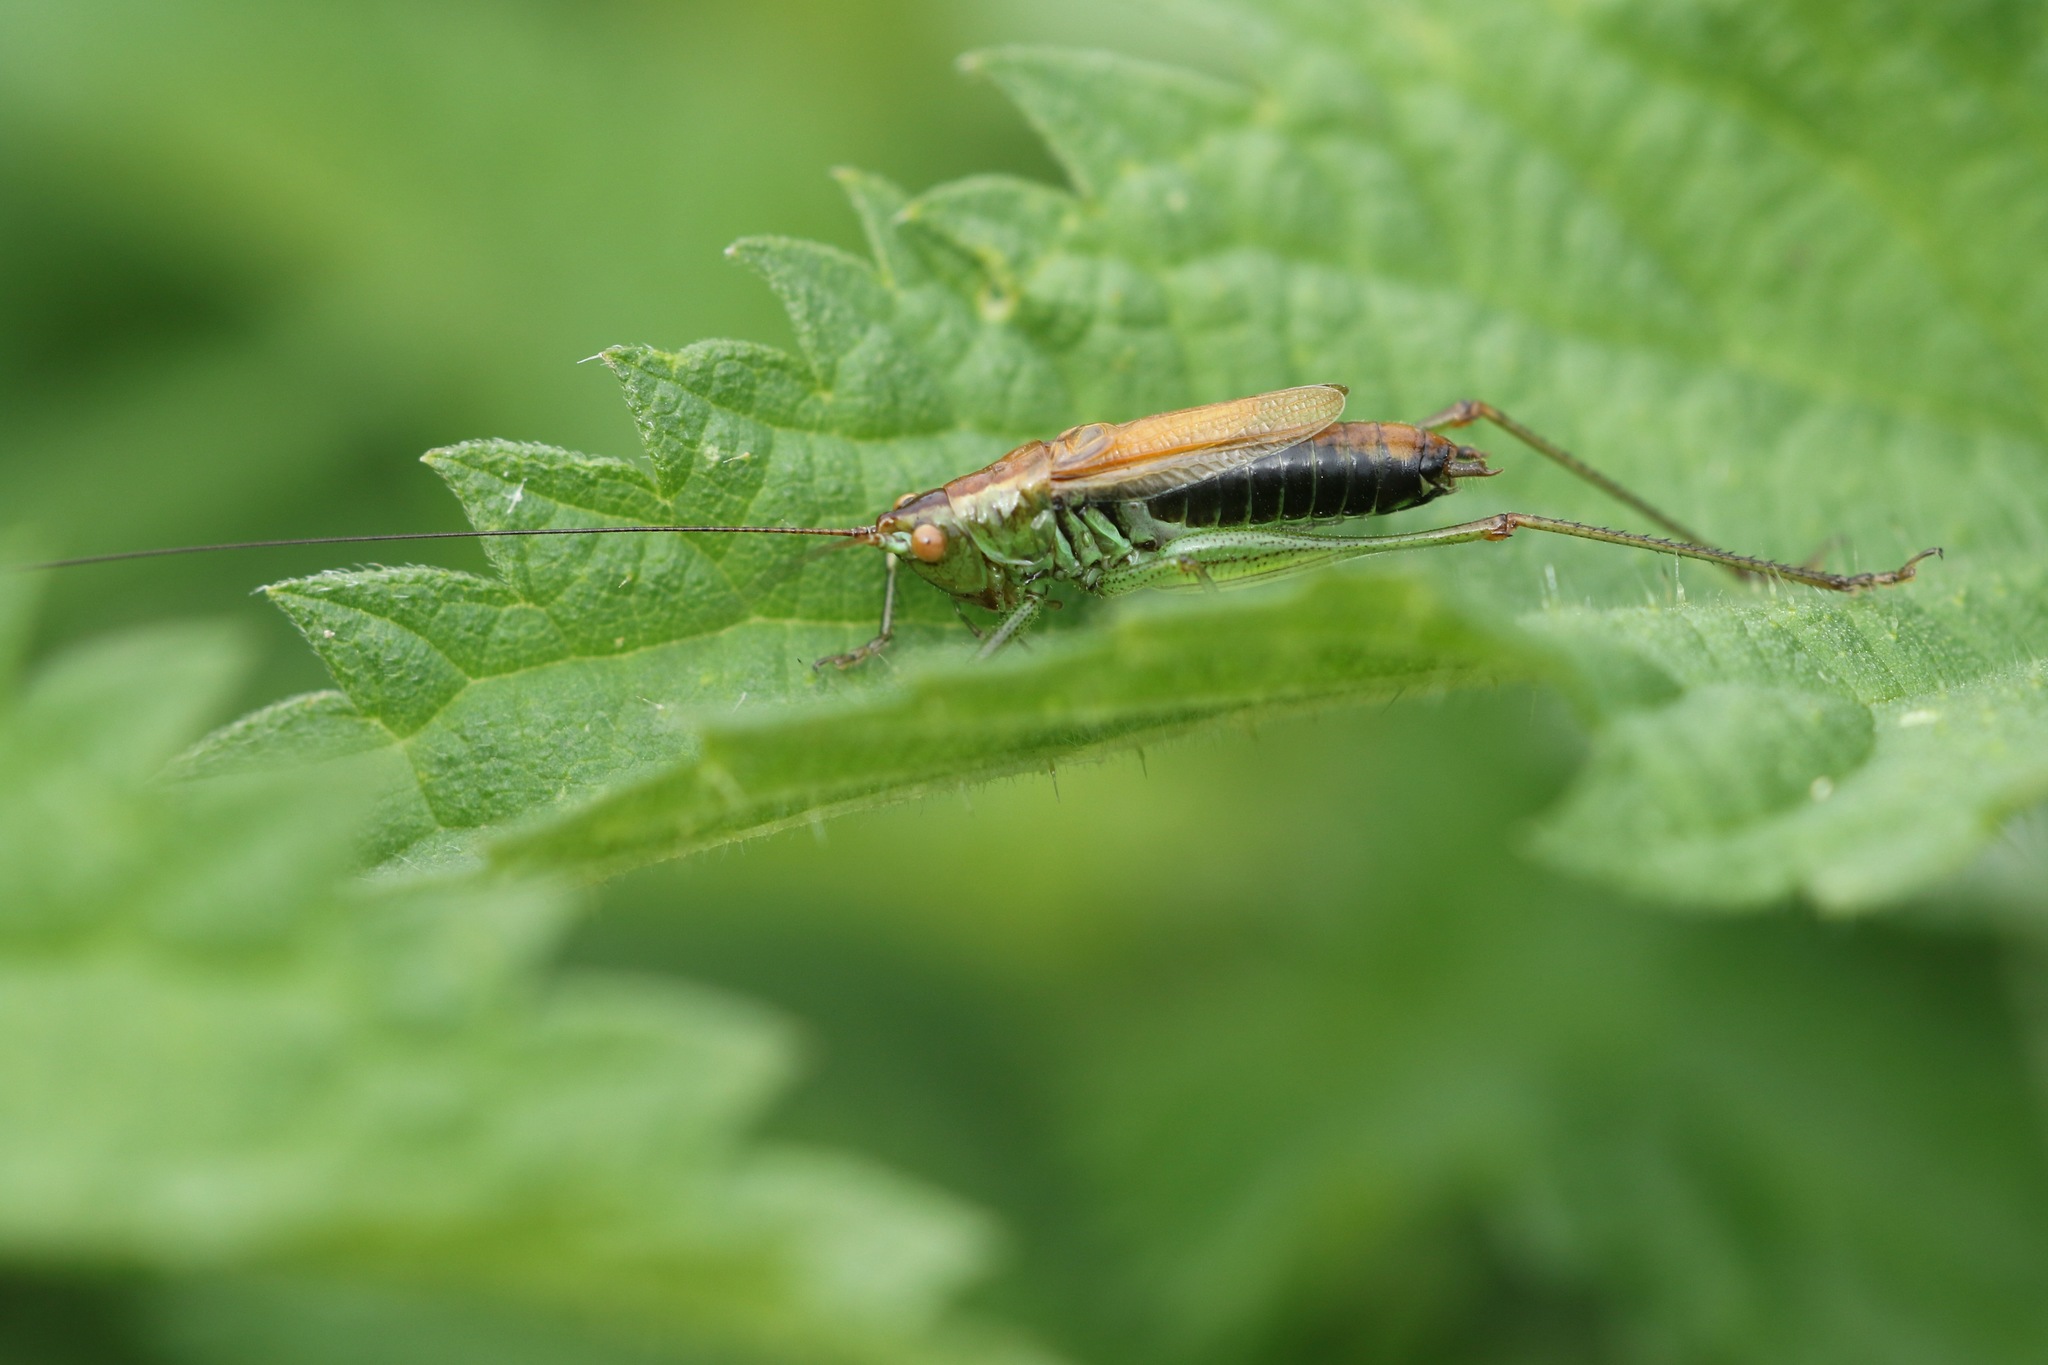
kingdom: Animalia
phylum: Arthropoda
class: Insecta
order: Orthoptera
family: Tettigoniidae
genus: Conocephalus
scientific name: Conocephalus dorsalis
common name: Short-winged conehead
